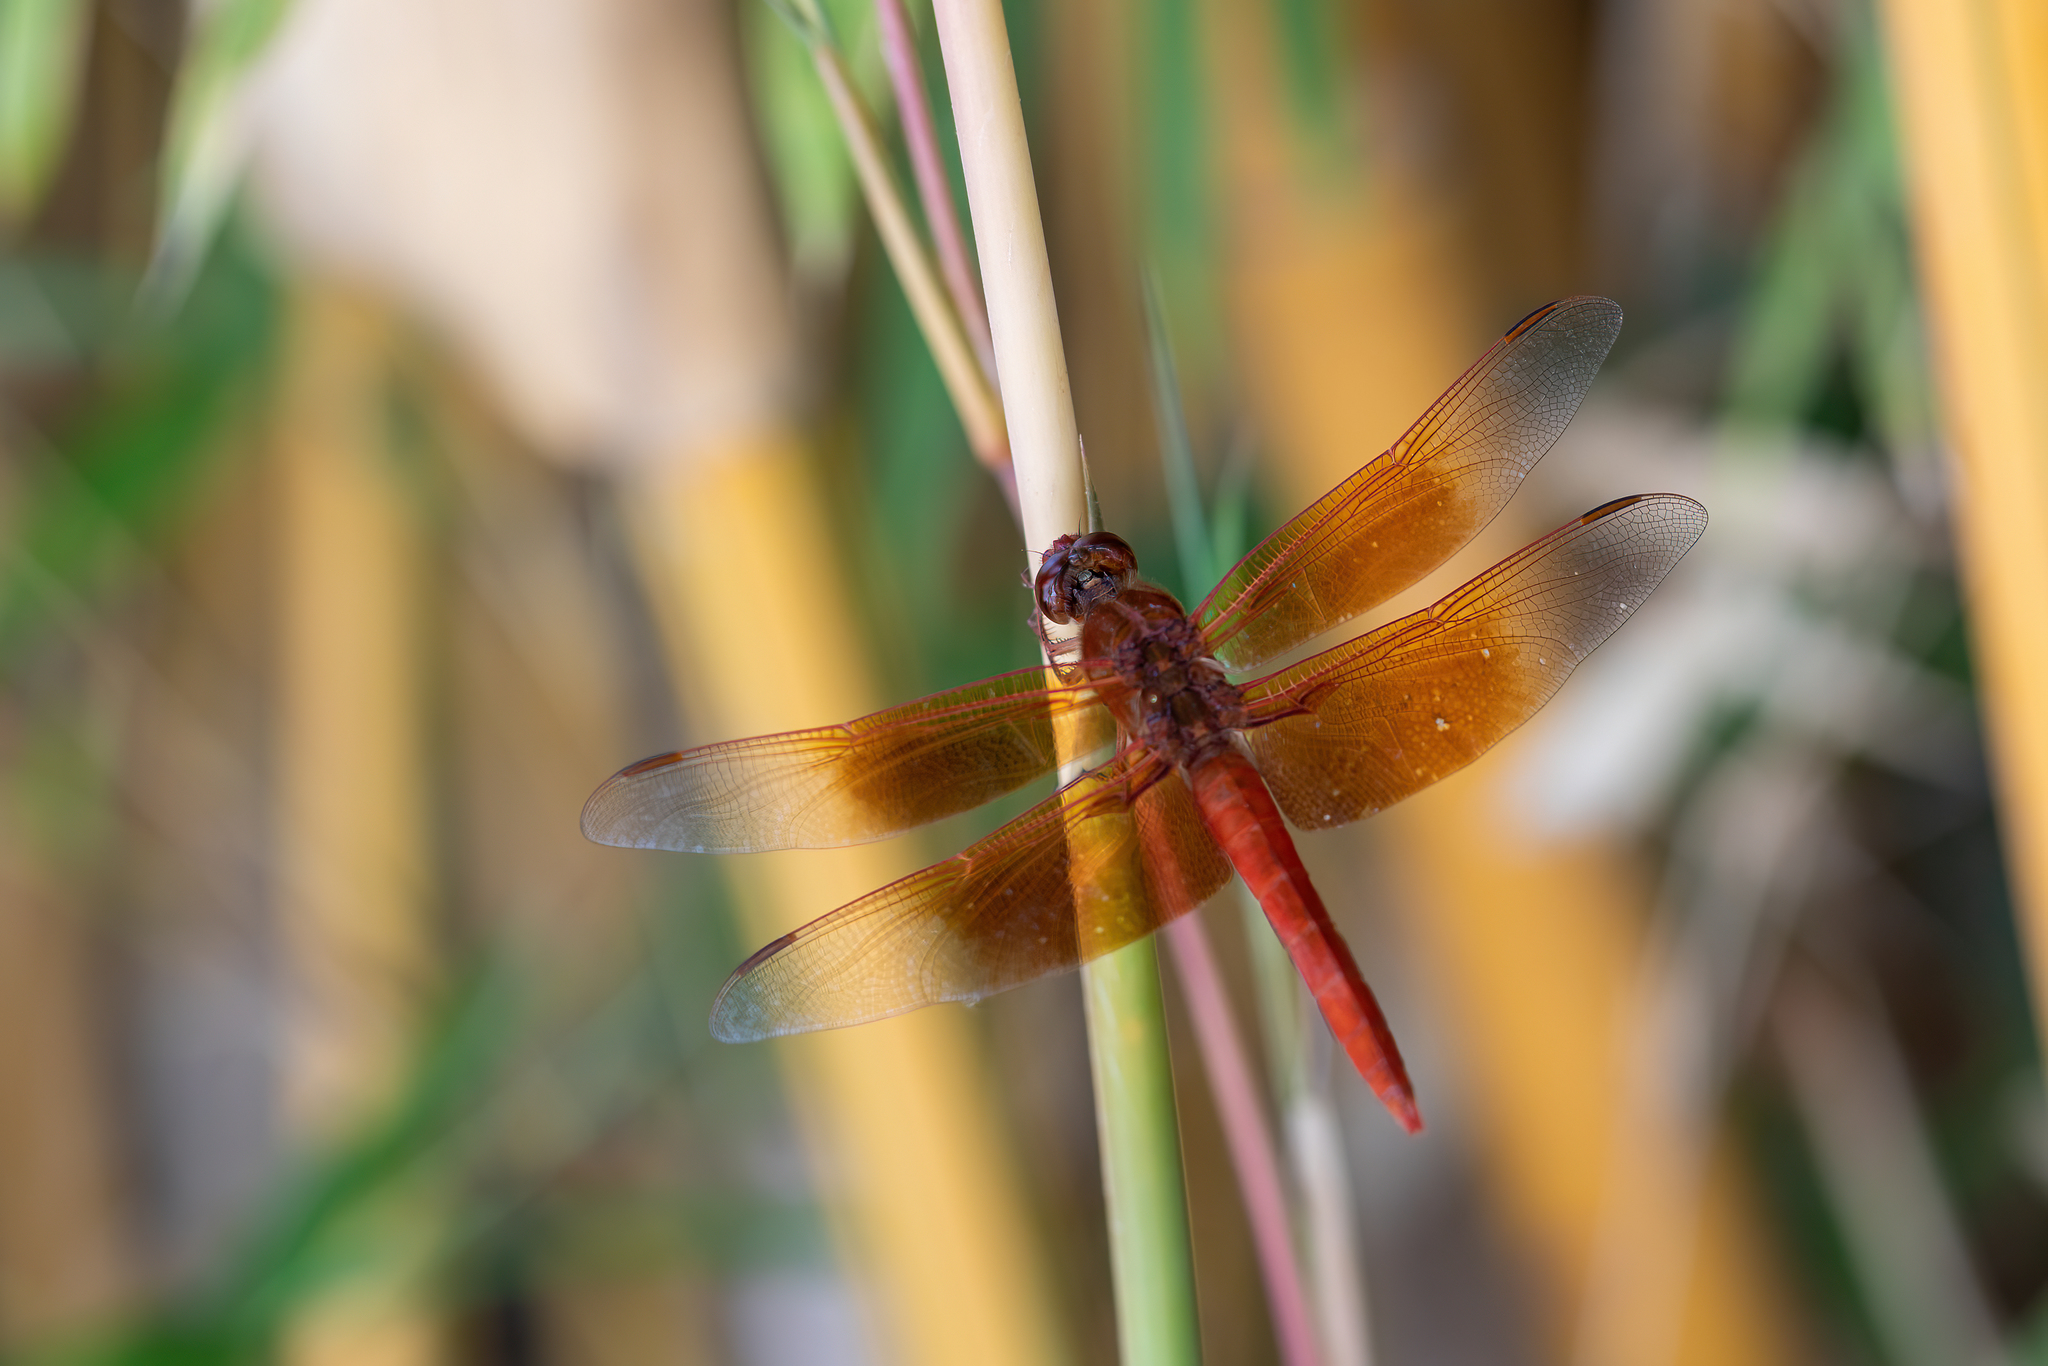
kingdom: Animalia
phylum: Arthropoda
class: Insecta
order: Odonata
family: Libellulidae
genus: Libellula
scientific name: Libellula saturata
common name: Flame skimmer
